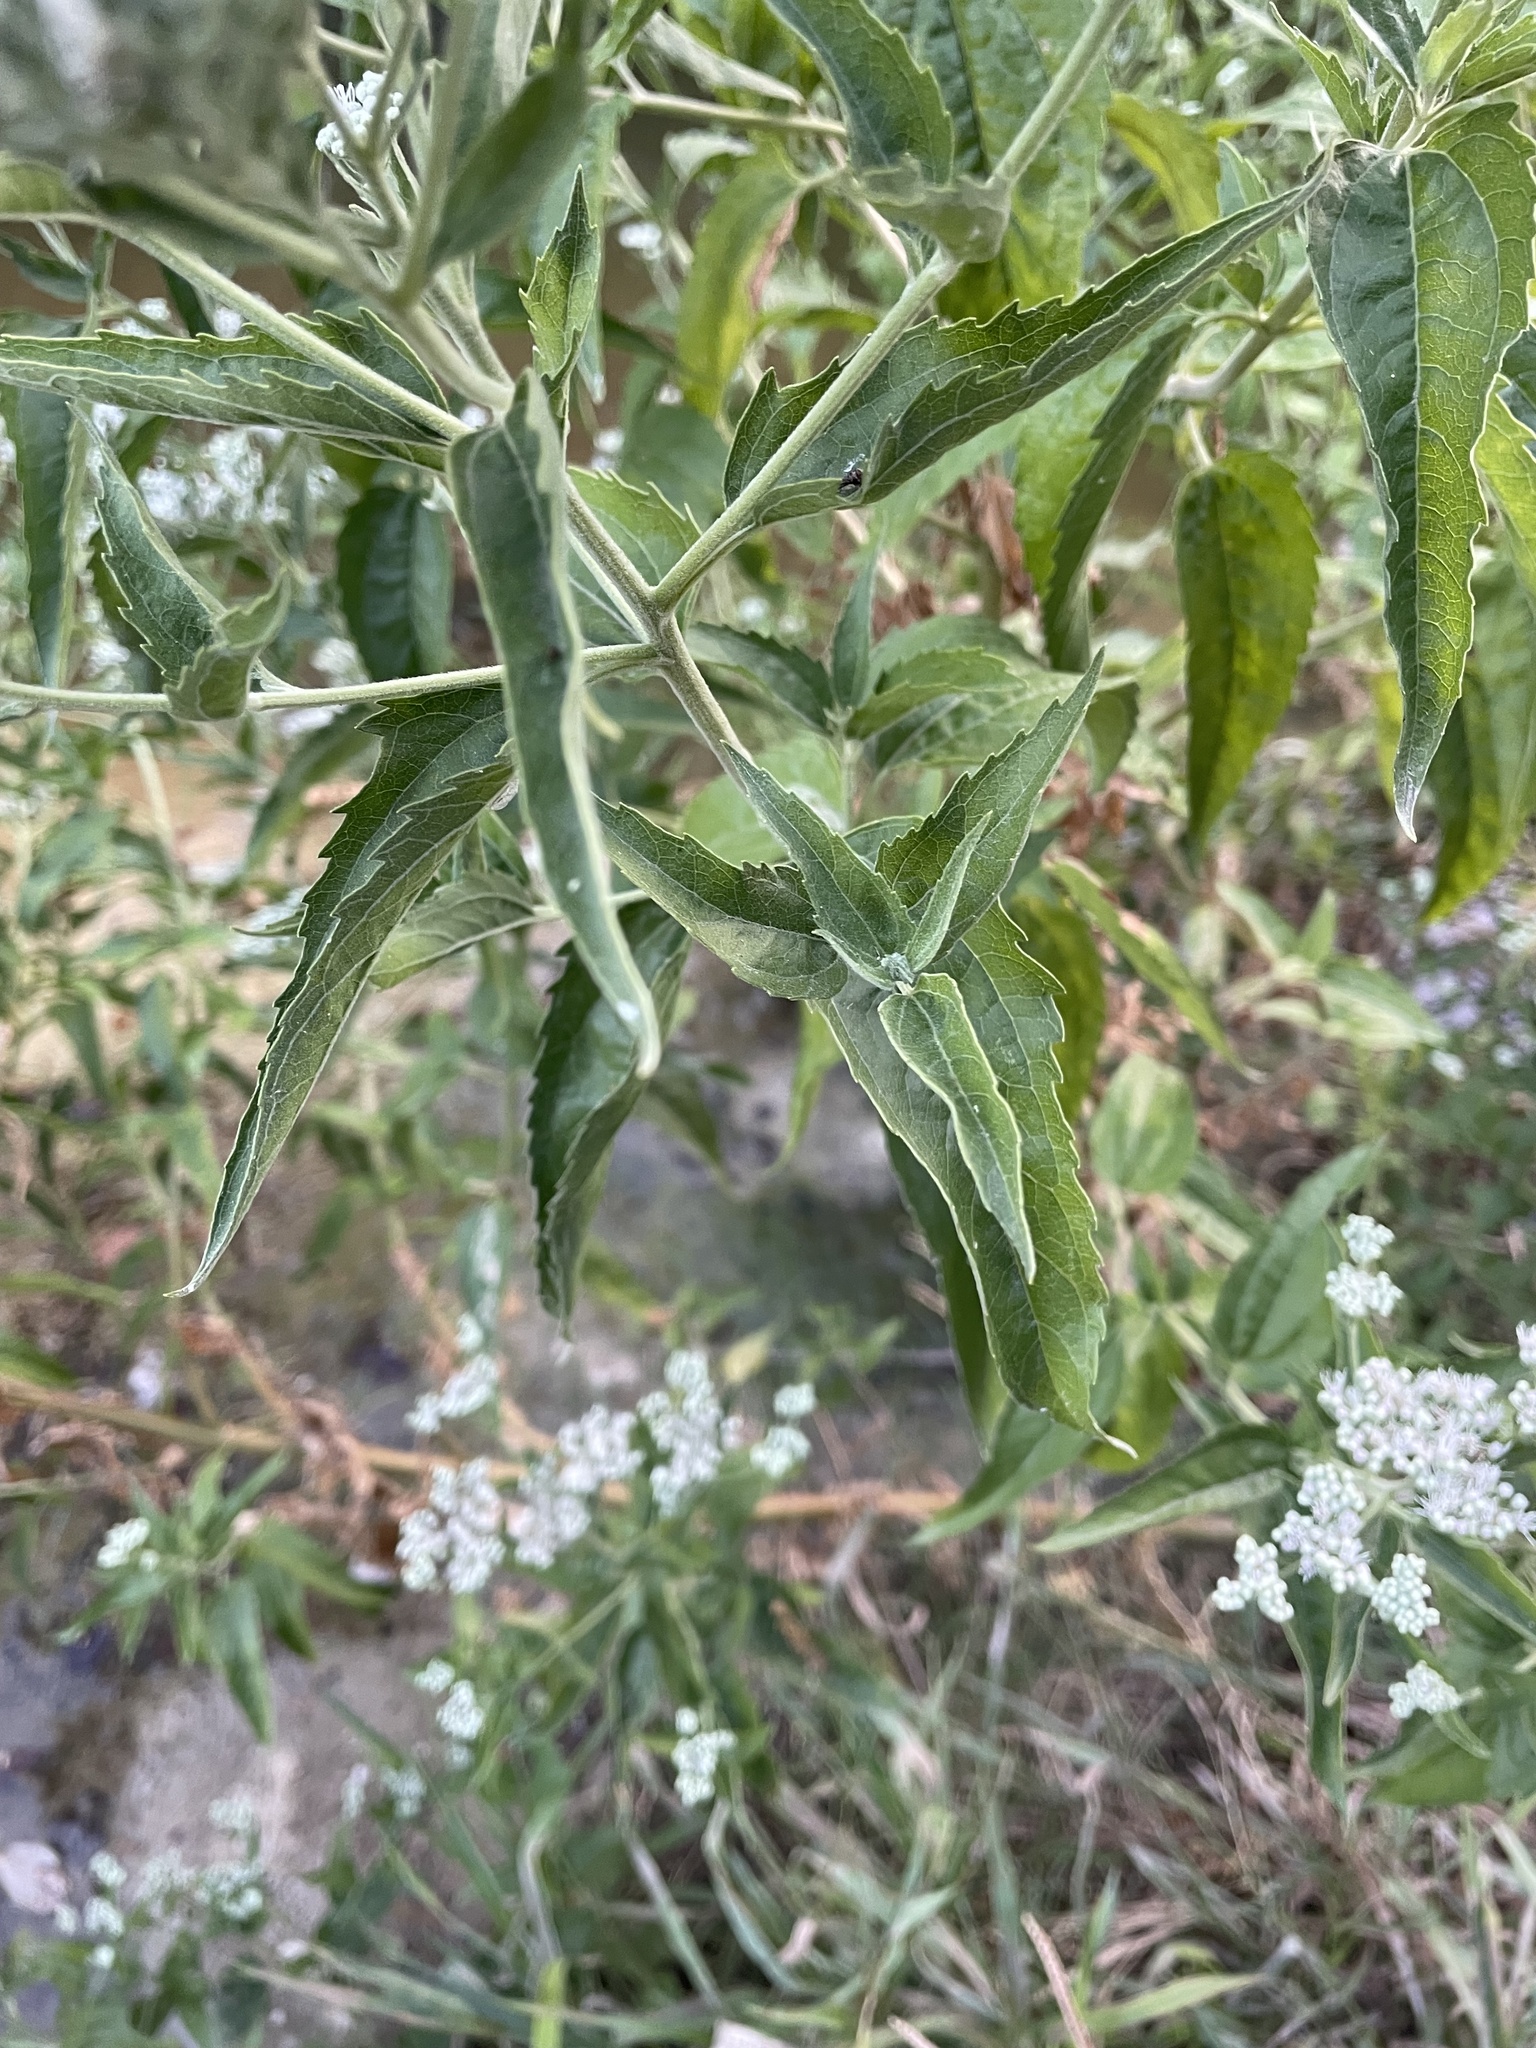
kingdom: Plantae
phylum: Tracheophyta
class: Magnoliopsida
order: Asterales
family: Asteraceae
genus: Eupatorium
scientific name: Eupatorium serotinum
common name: Late boneset
